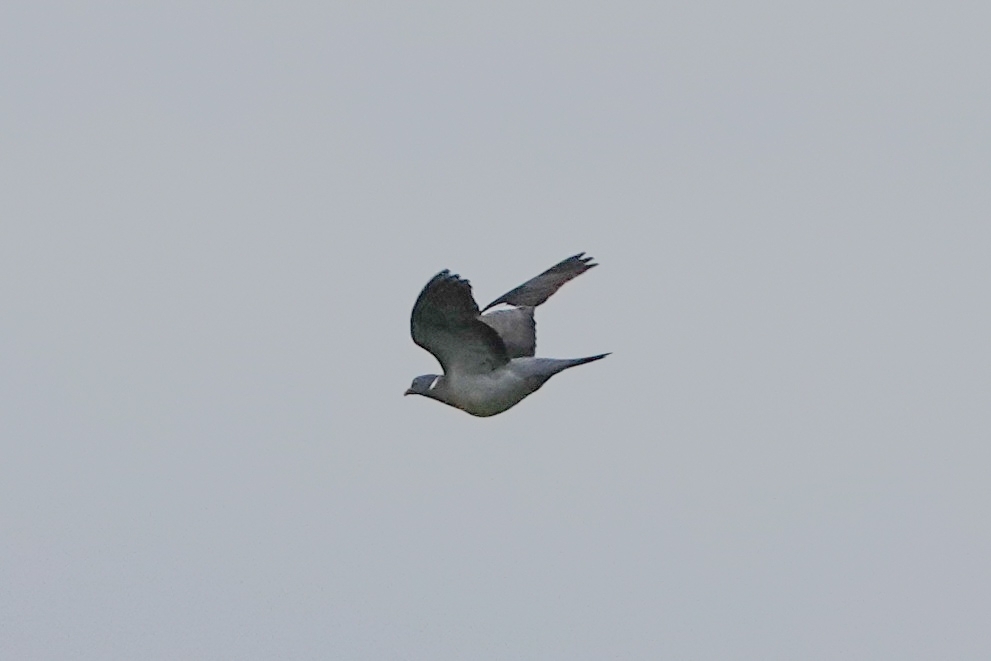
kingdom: Animalia
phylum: Chordata
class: Aves
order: Columbiformes
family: Columbidae
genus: Columba
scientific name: Columba palumbus
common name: Common wood pigeon
